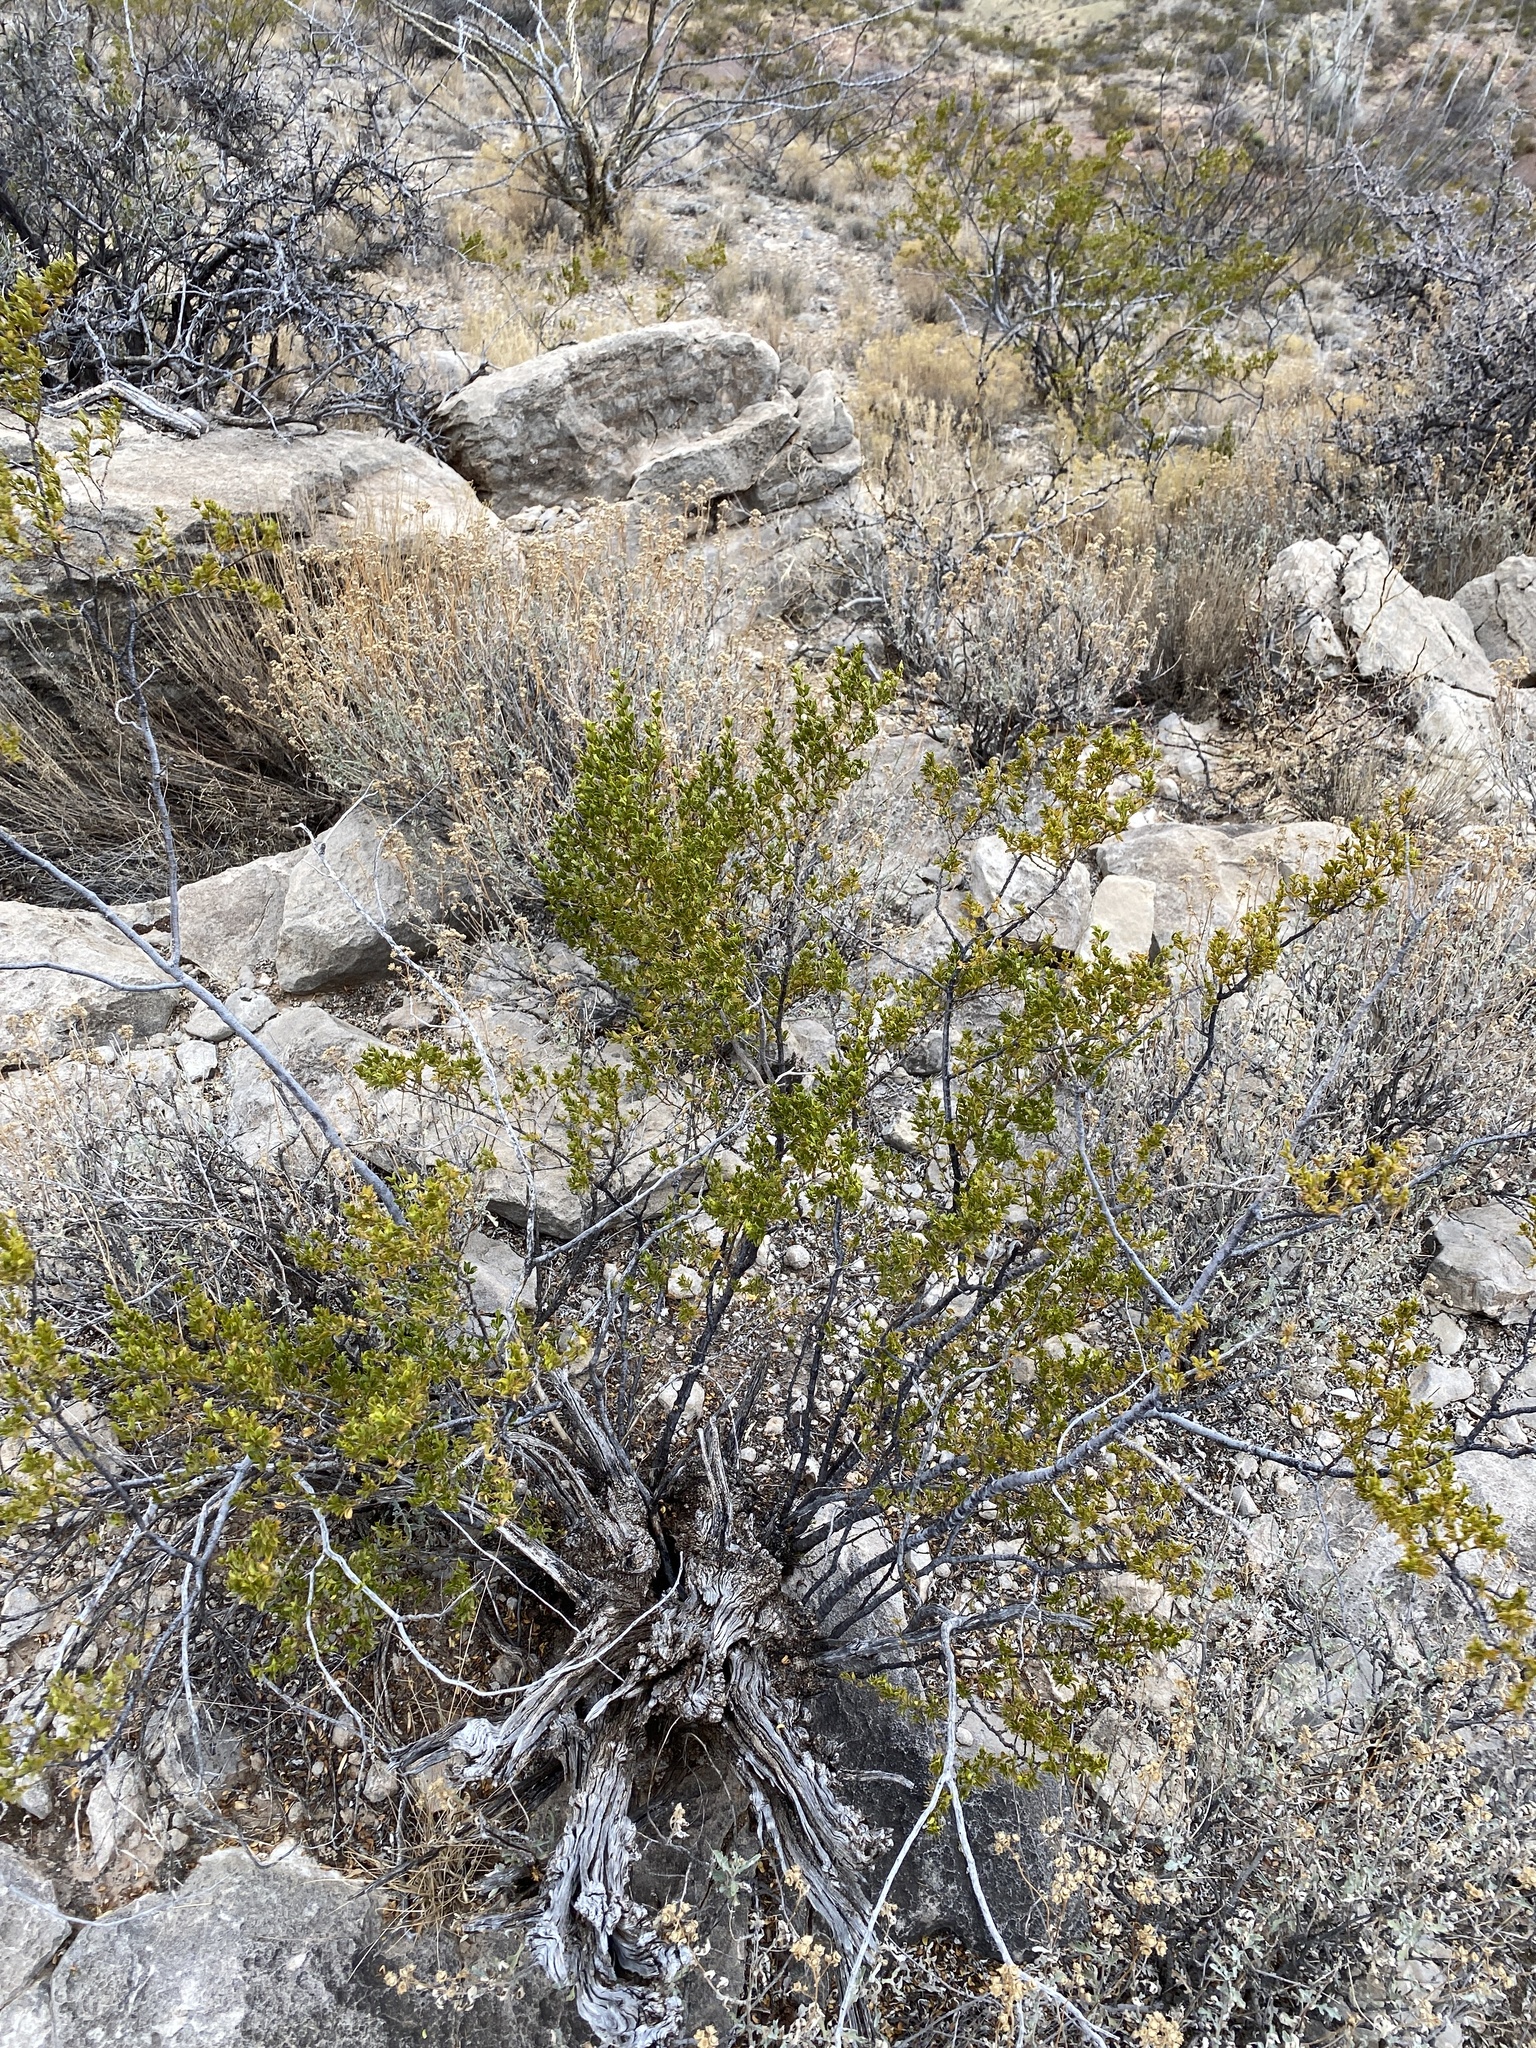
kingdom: Plantae
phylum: Tracheophyta
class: Magnoliopsida
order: Zygophyllales
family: Zygophyllaceae
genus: Larrea
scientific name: Larrea tridentata
